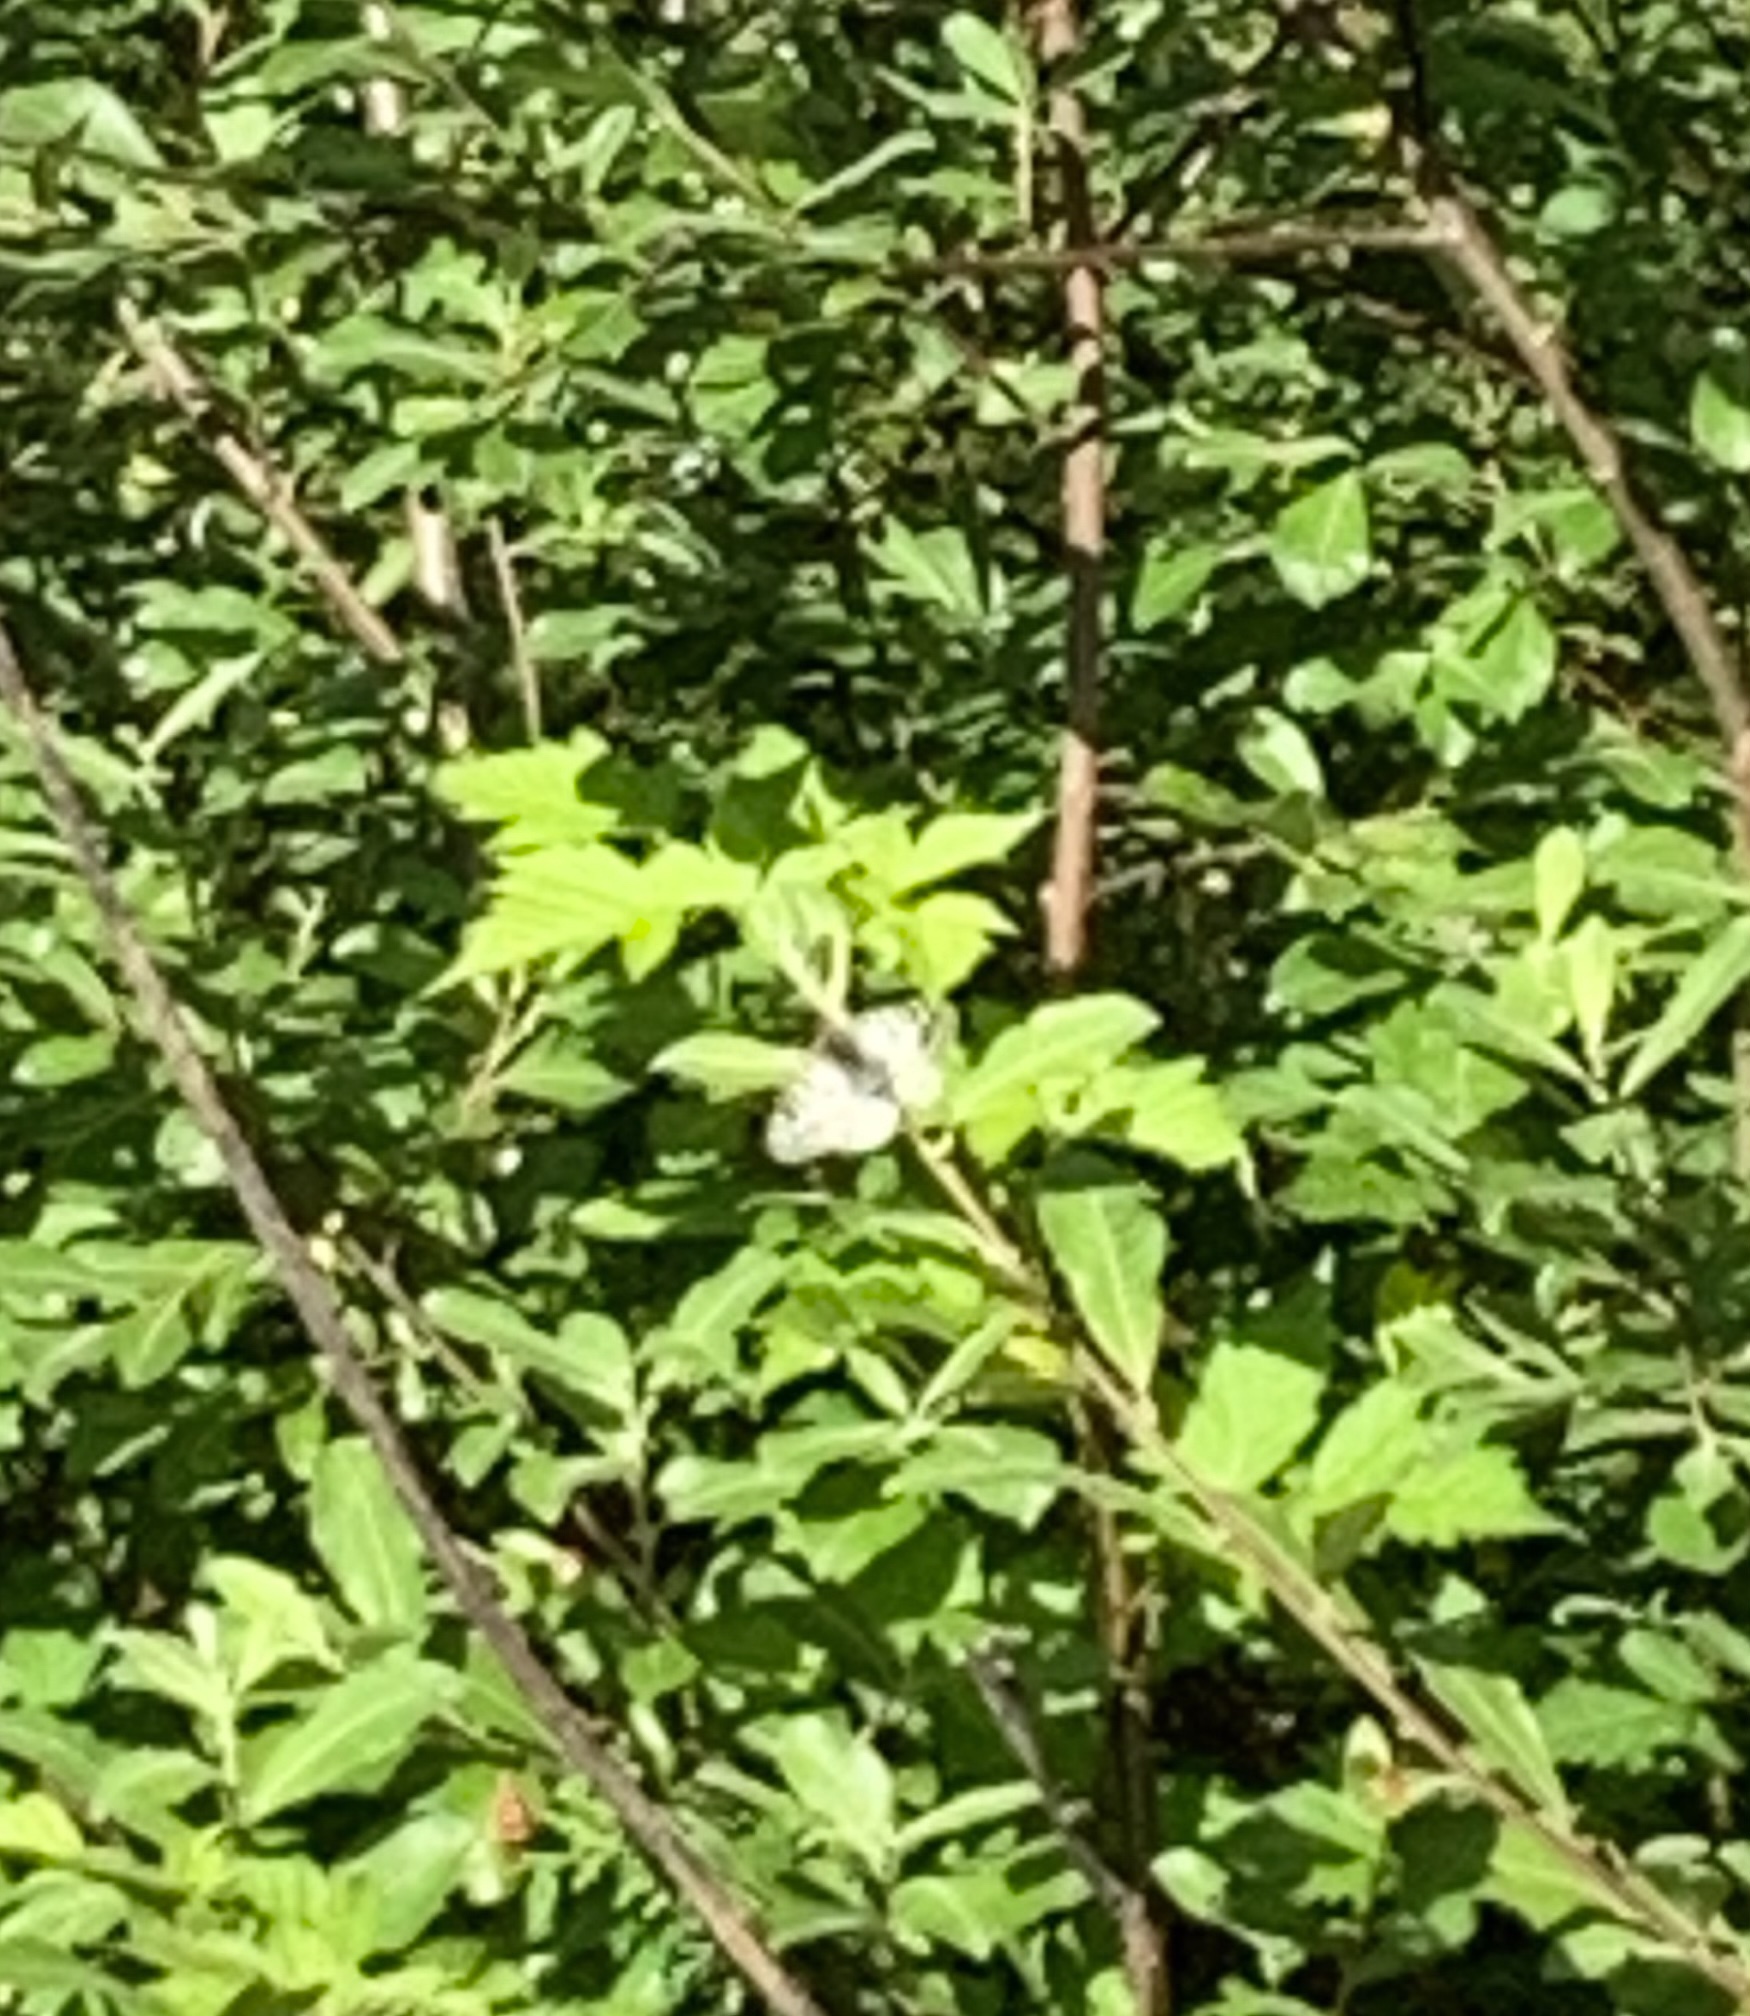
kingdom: Animalia
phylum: Arthropoda
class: Insecta
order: Lepidoptera
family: Papilionidae
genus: Parnassius
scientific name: Parnassius clodius
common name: American apollo
